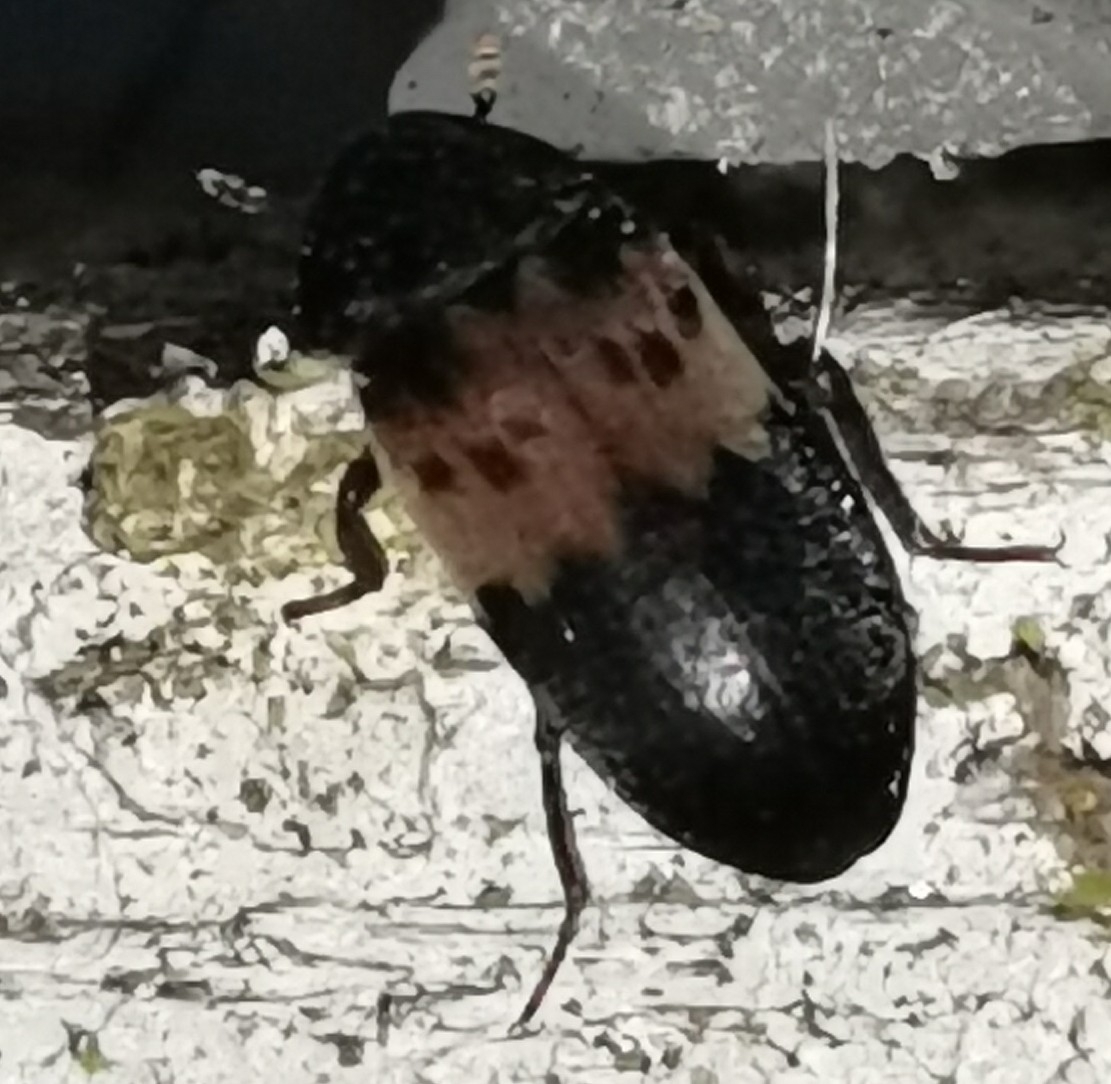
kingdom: Animalia
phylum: Arthropoda
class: Insecta
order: Coleoptera
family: Dermestidae
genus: Dermestes
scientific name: Dermestes lardarius
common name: Larder beetle
